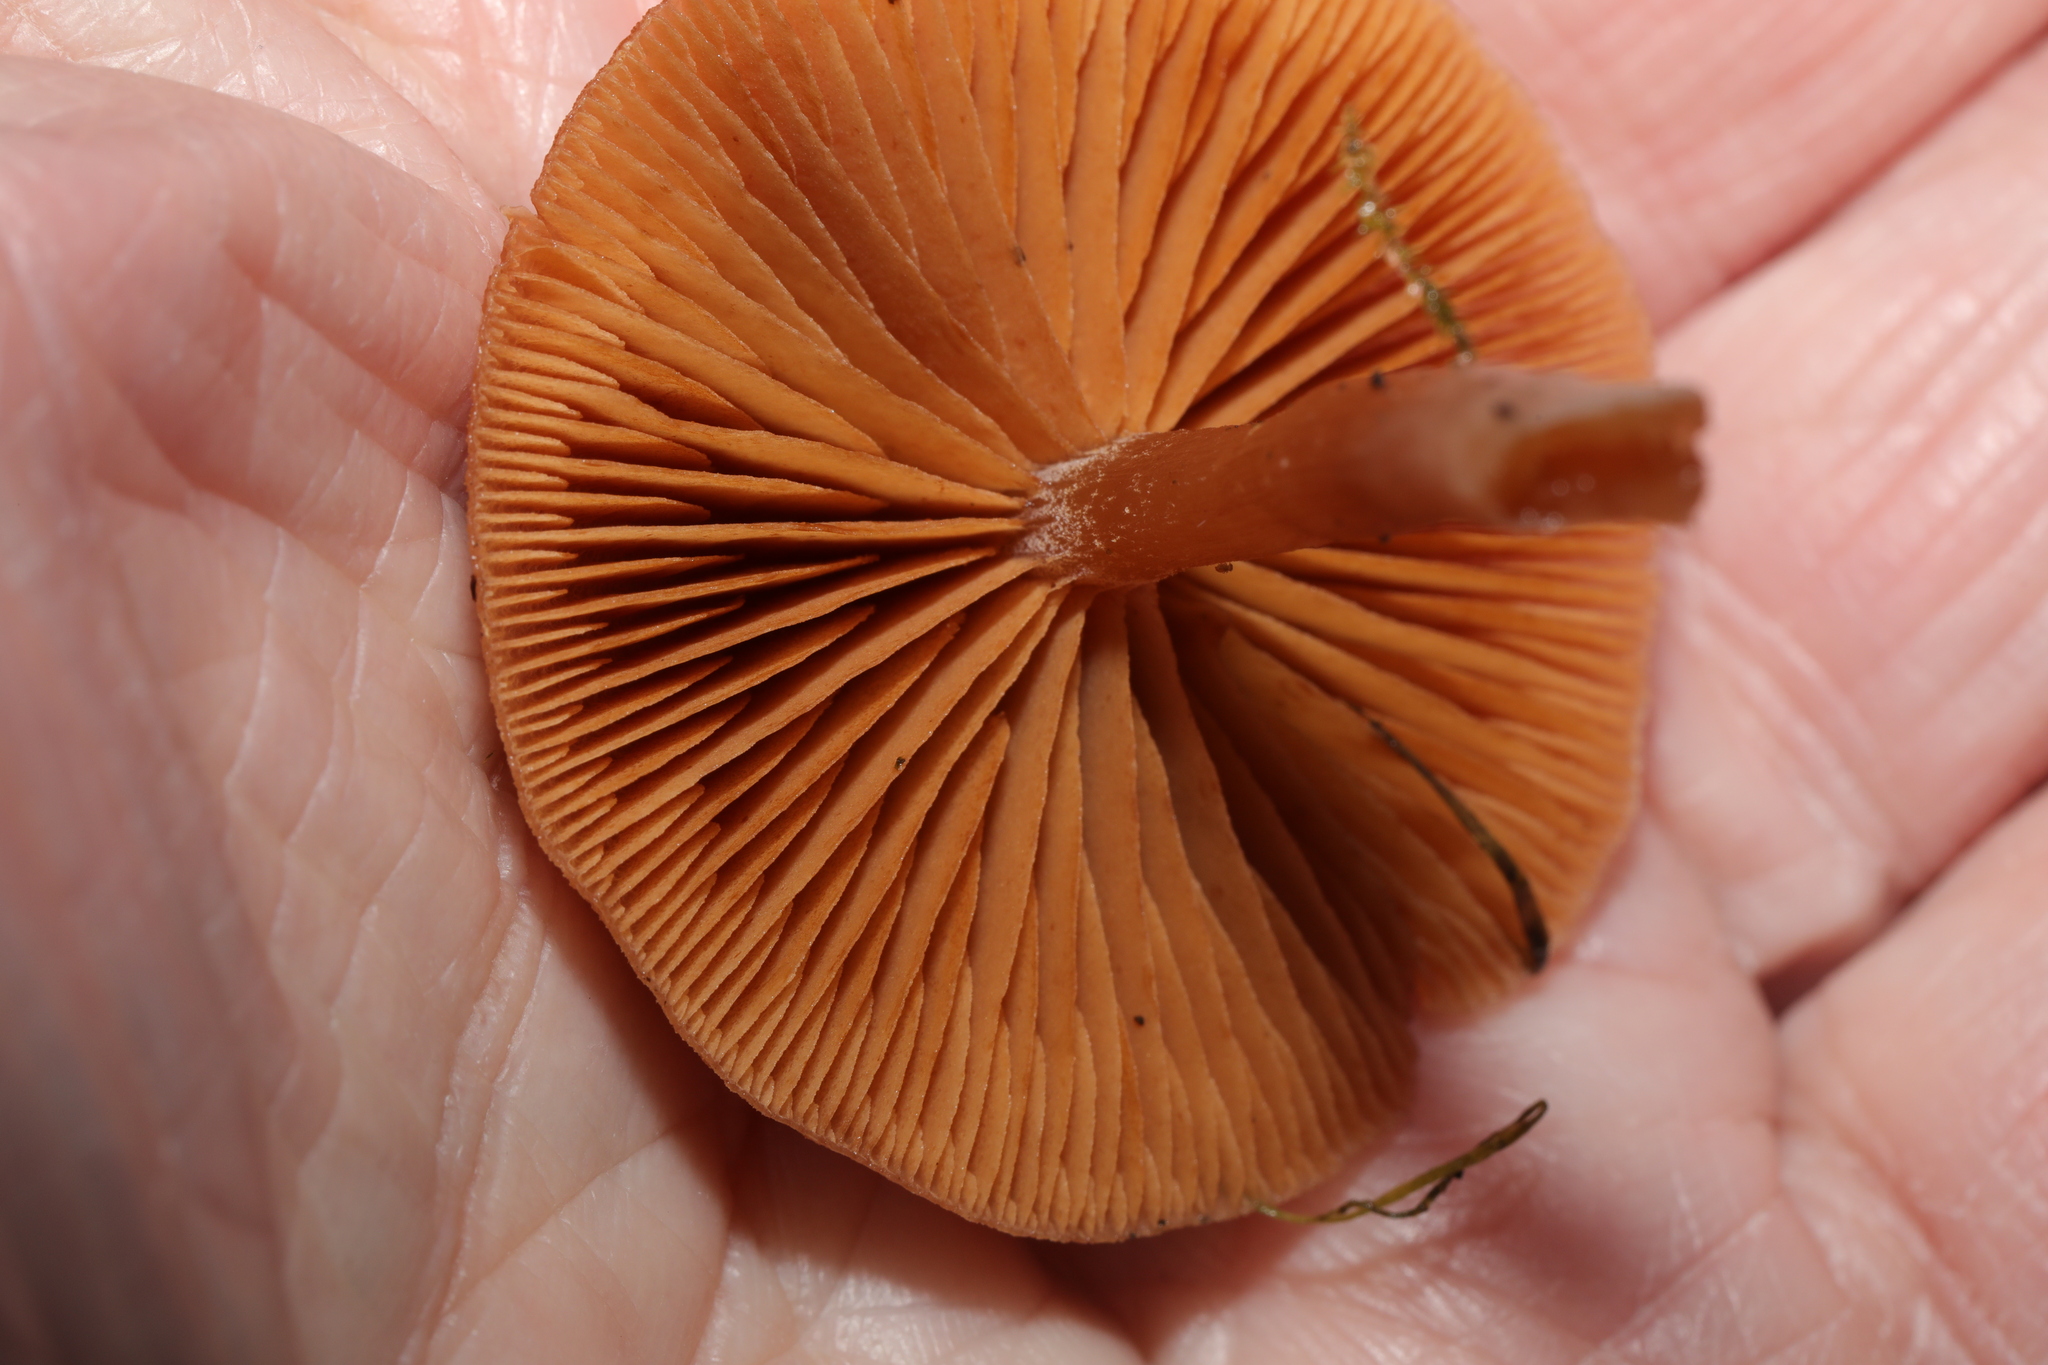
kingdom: Fungi
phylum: Basidiomycota
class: Agaricomycetes
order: Agaricales
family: Tubariaceae
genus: Tubaria
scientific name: Tubaria furfuracea
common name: Scurfy twiglet
